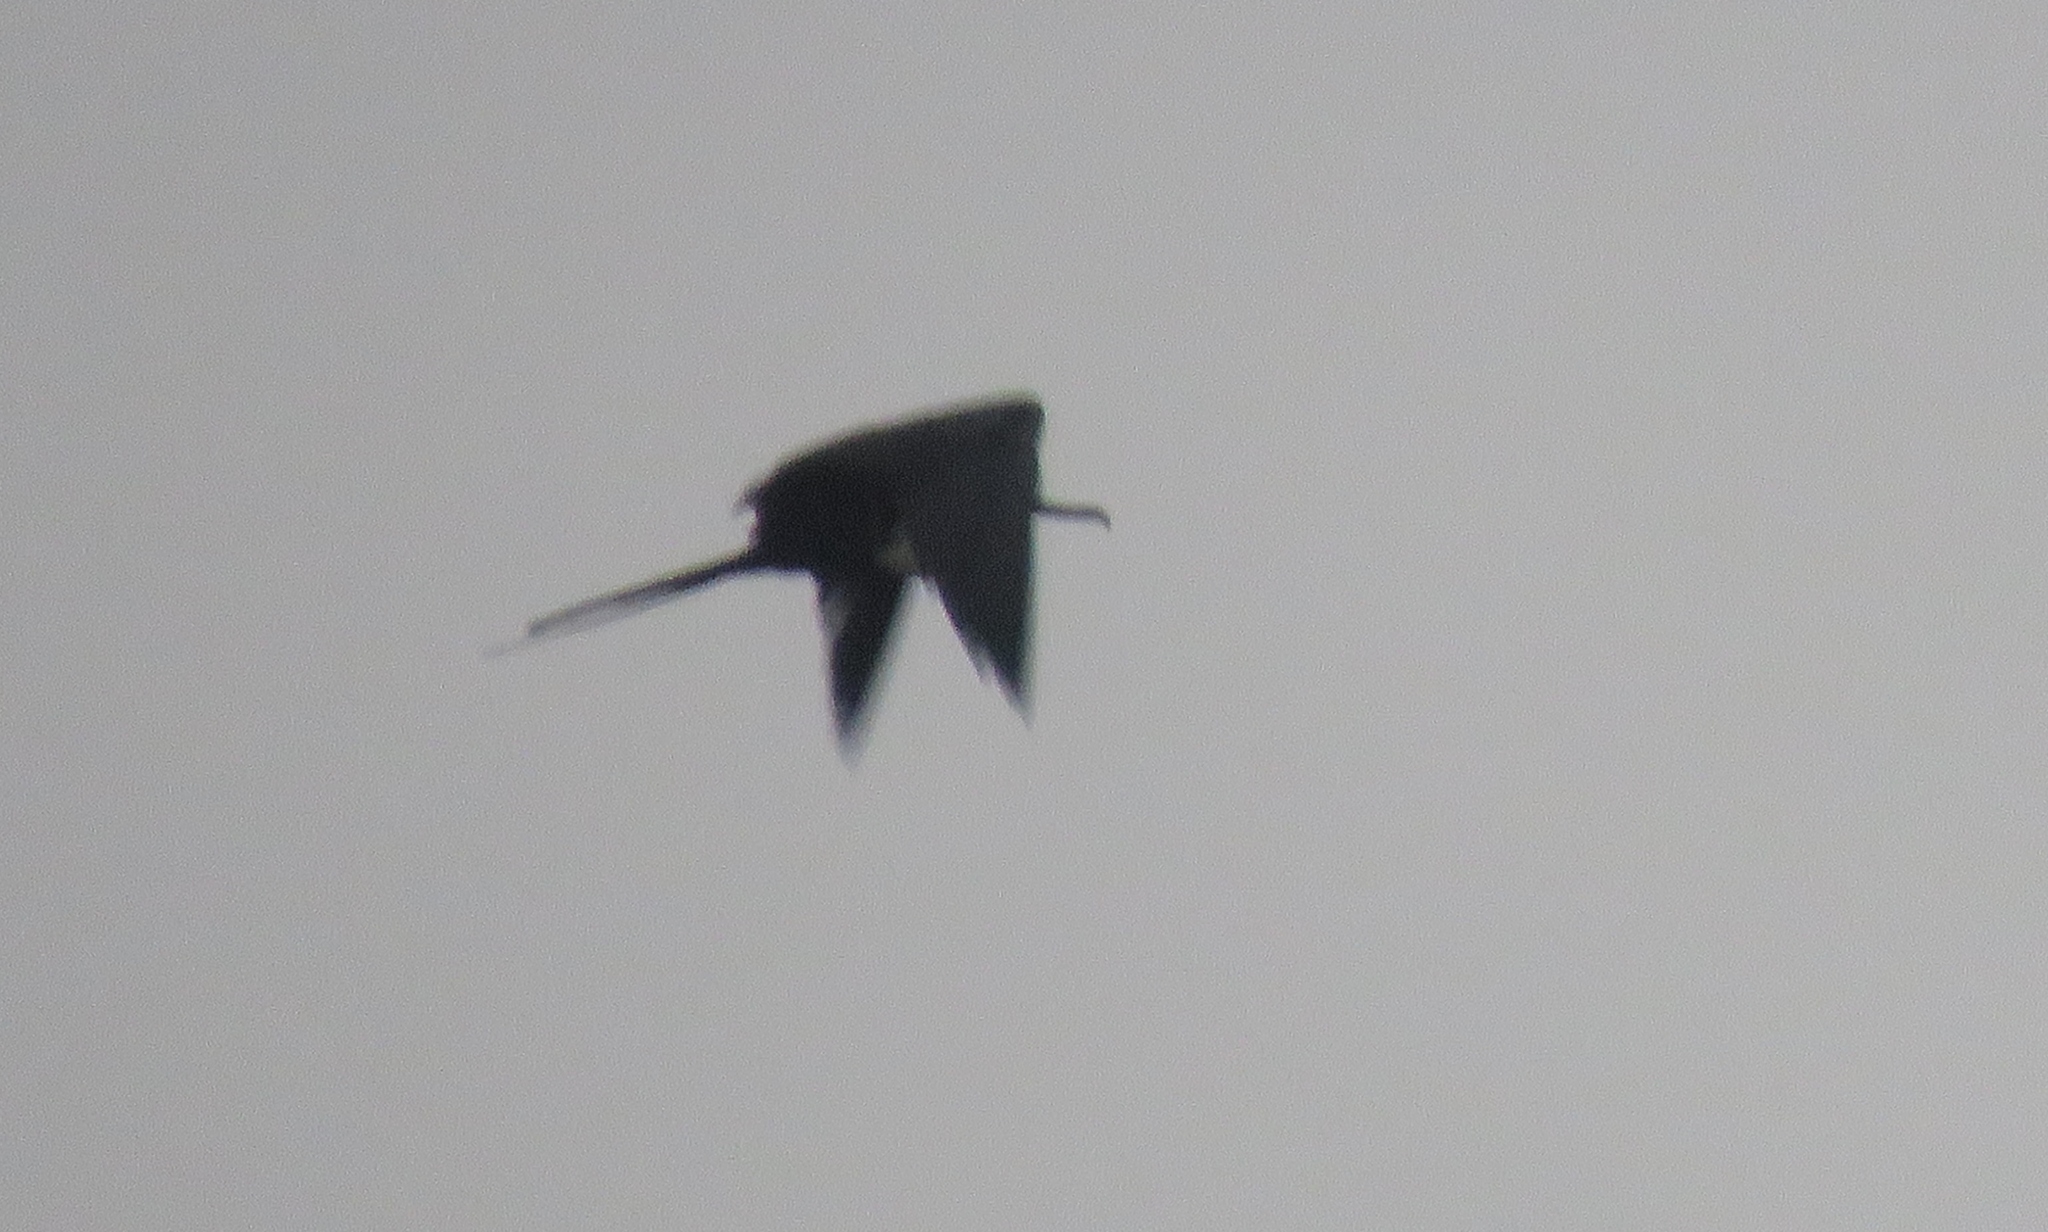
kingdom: Animalia
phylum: Chordata
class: Aves
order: Suliformes
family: Fregatidae
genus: Fregata
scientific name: Fregata magnificens
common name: Magnificent frigatebird
